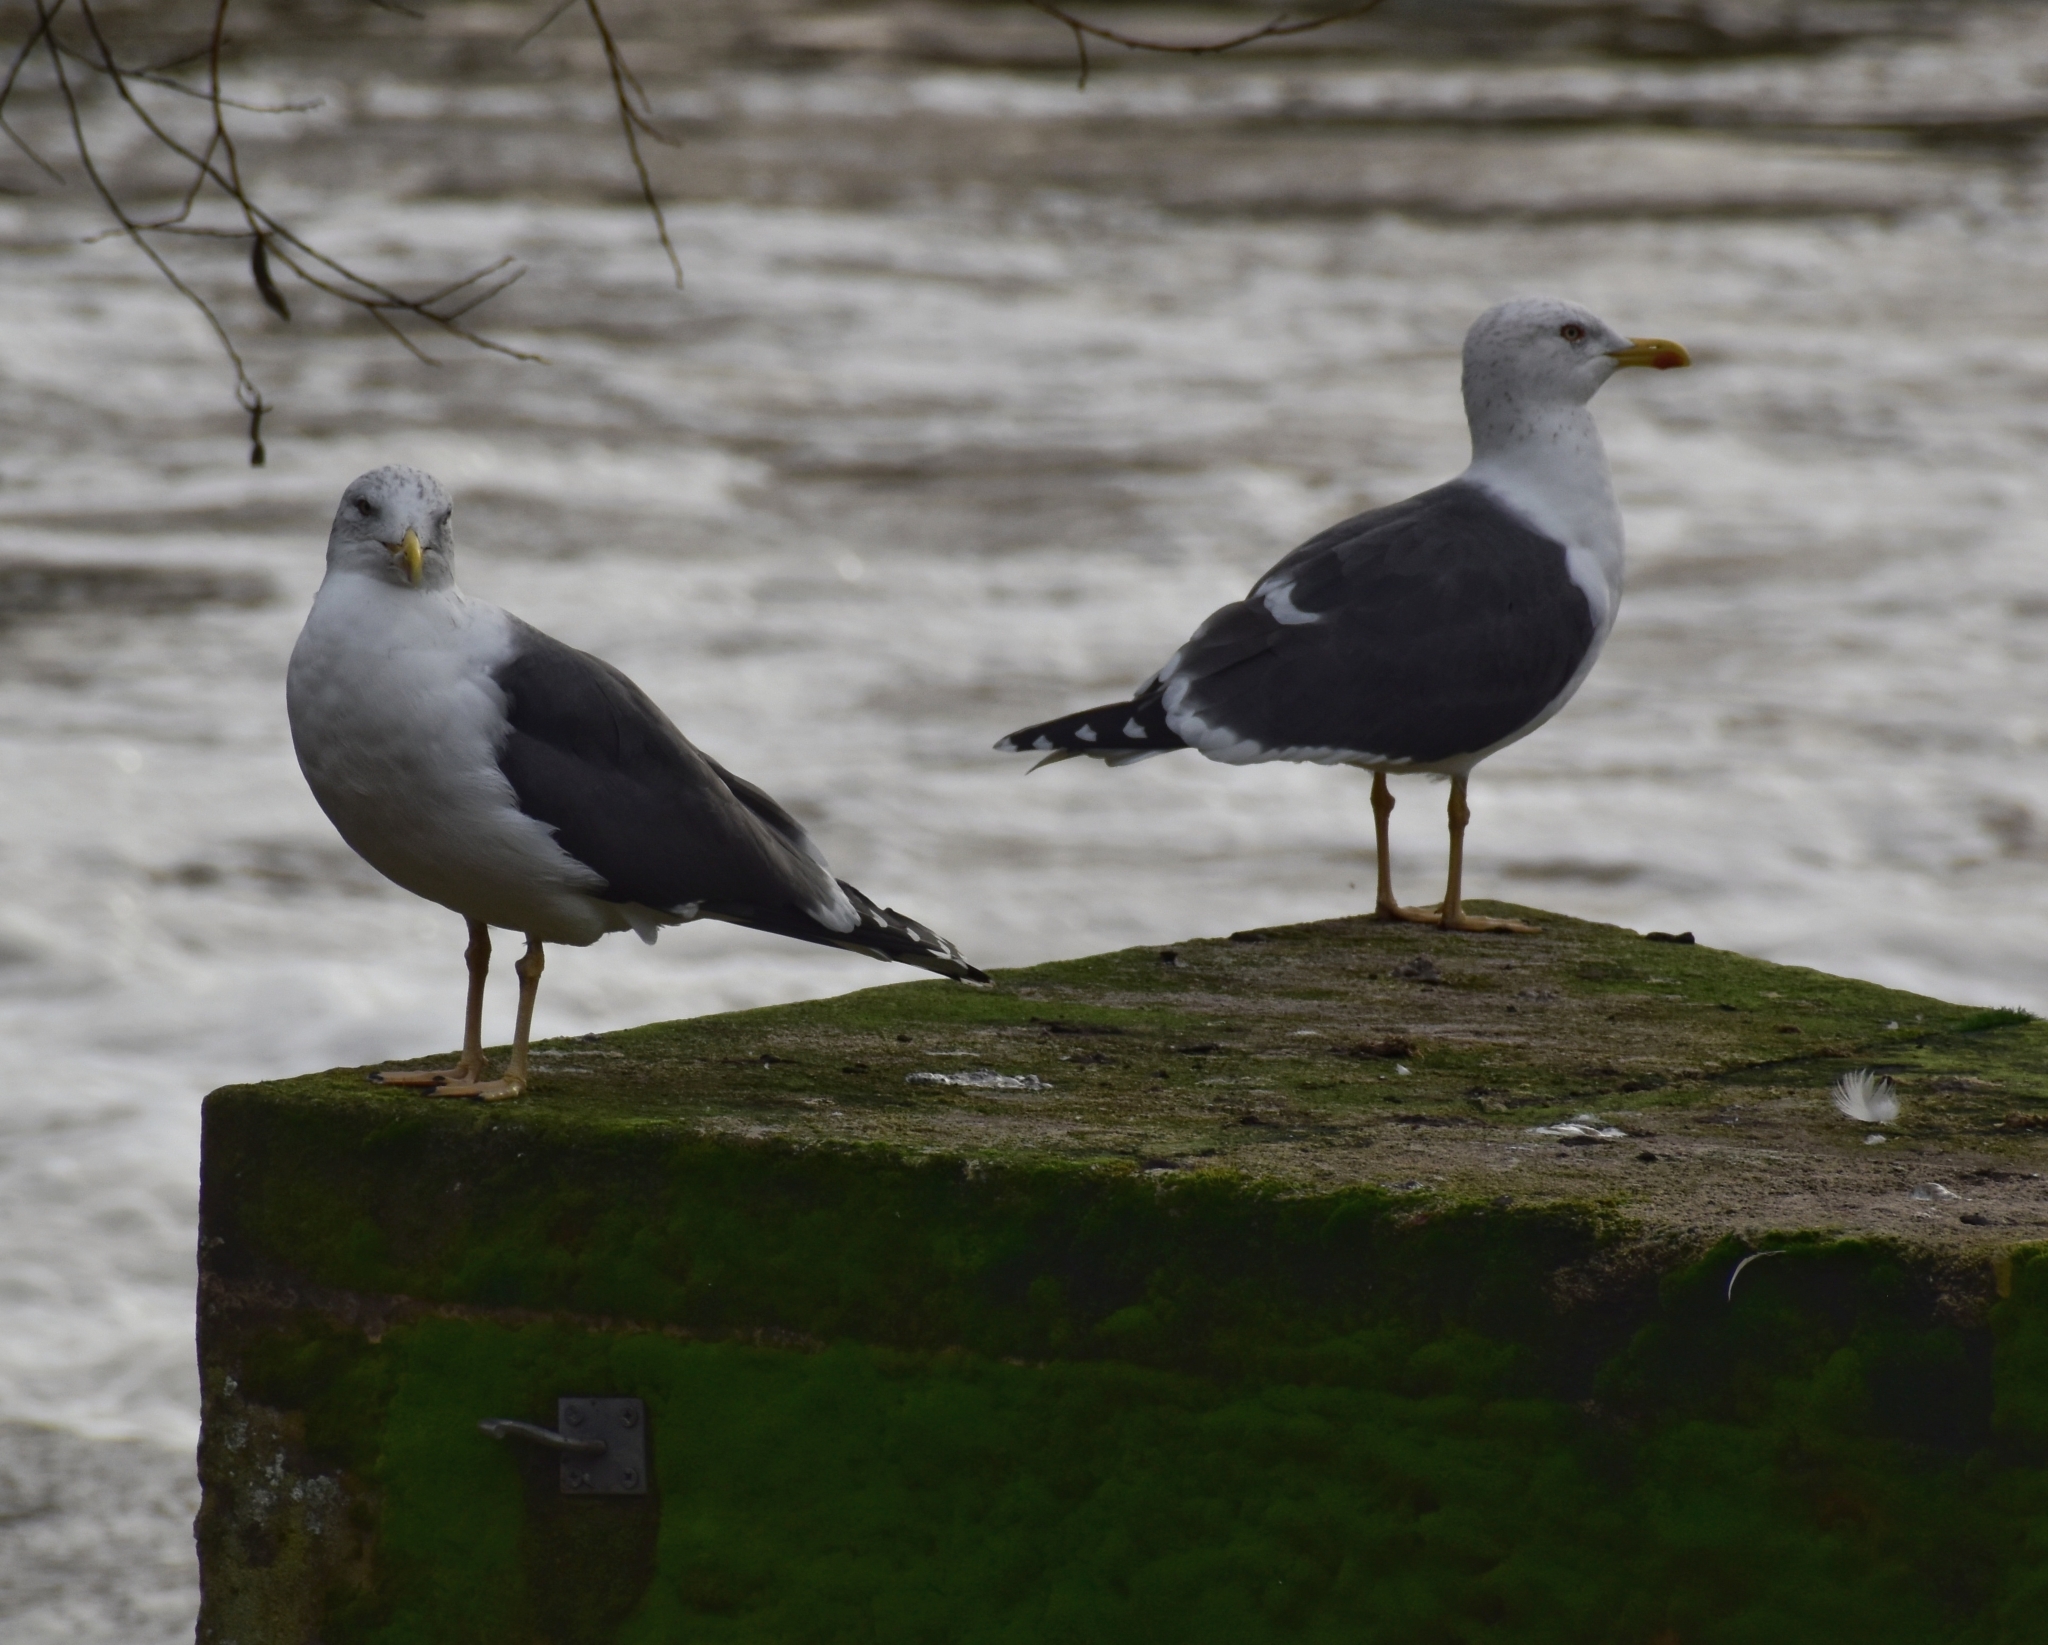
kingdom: Animalia
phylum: Chordata
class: Aves
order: Charadriiformes
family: Laridae
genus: Larus
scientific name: Larus fuscus
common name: Lesser black-backed gull
